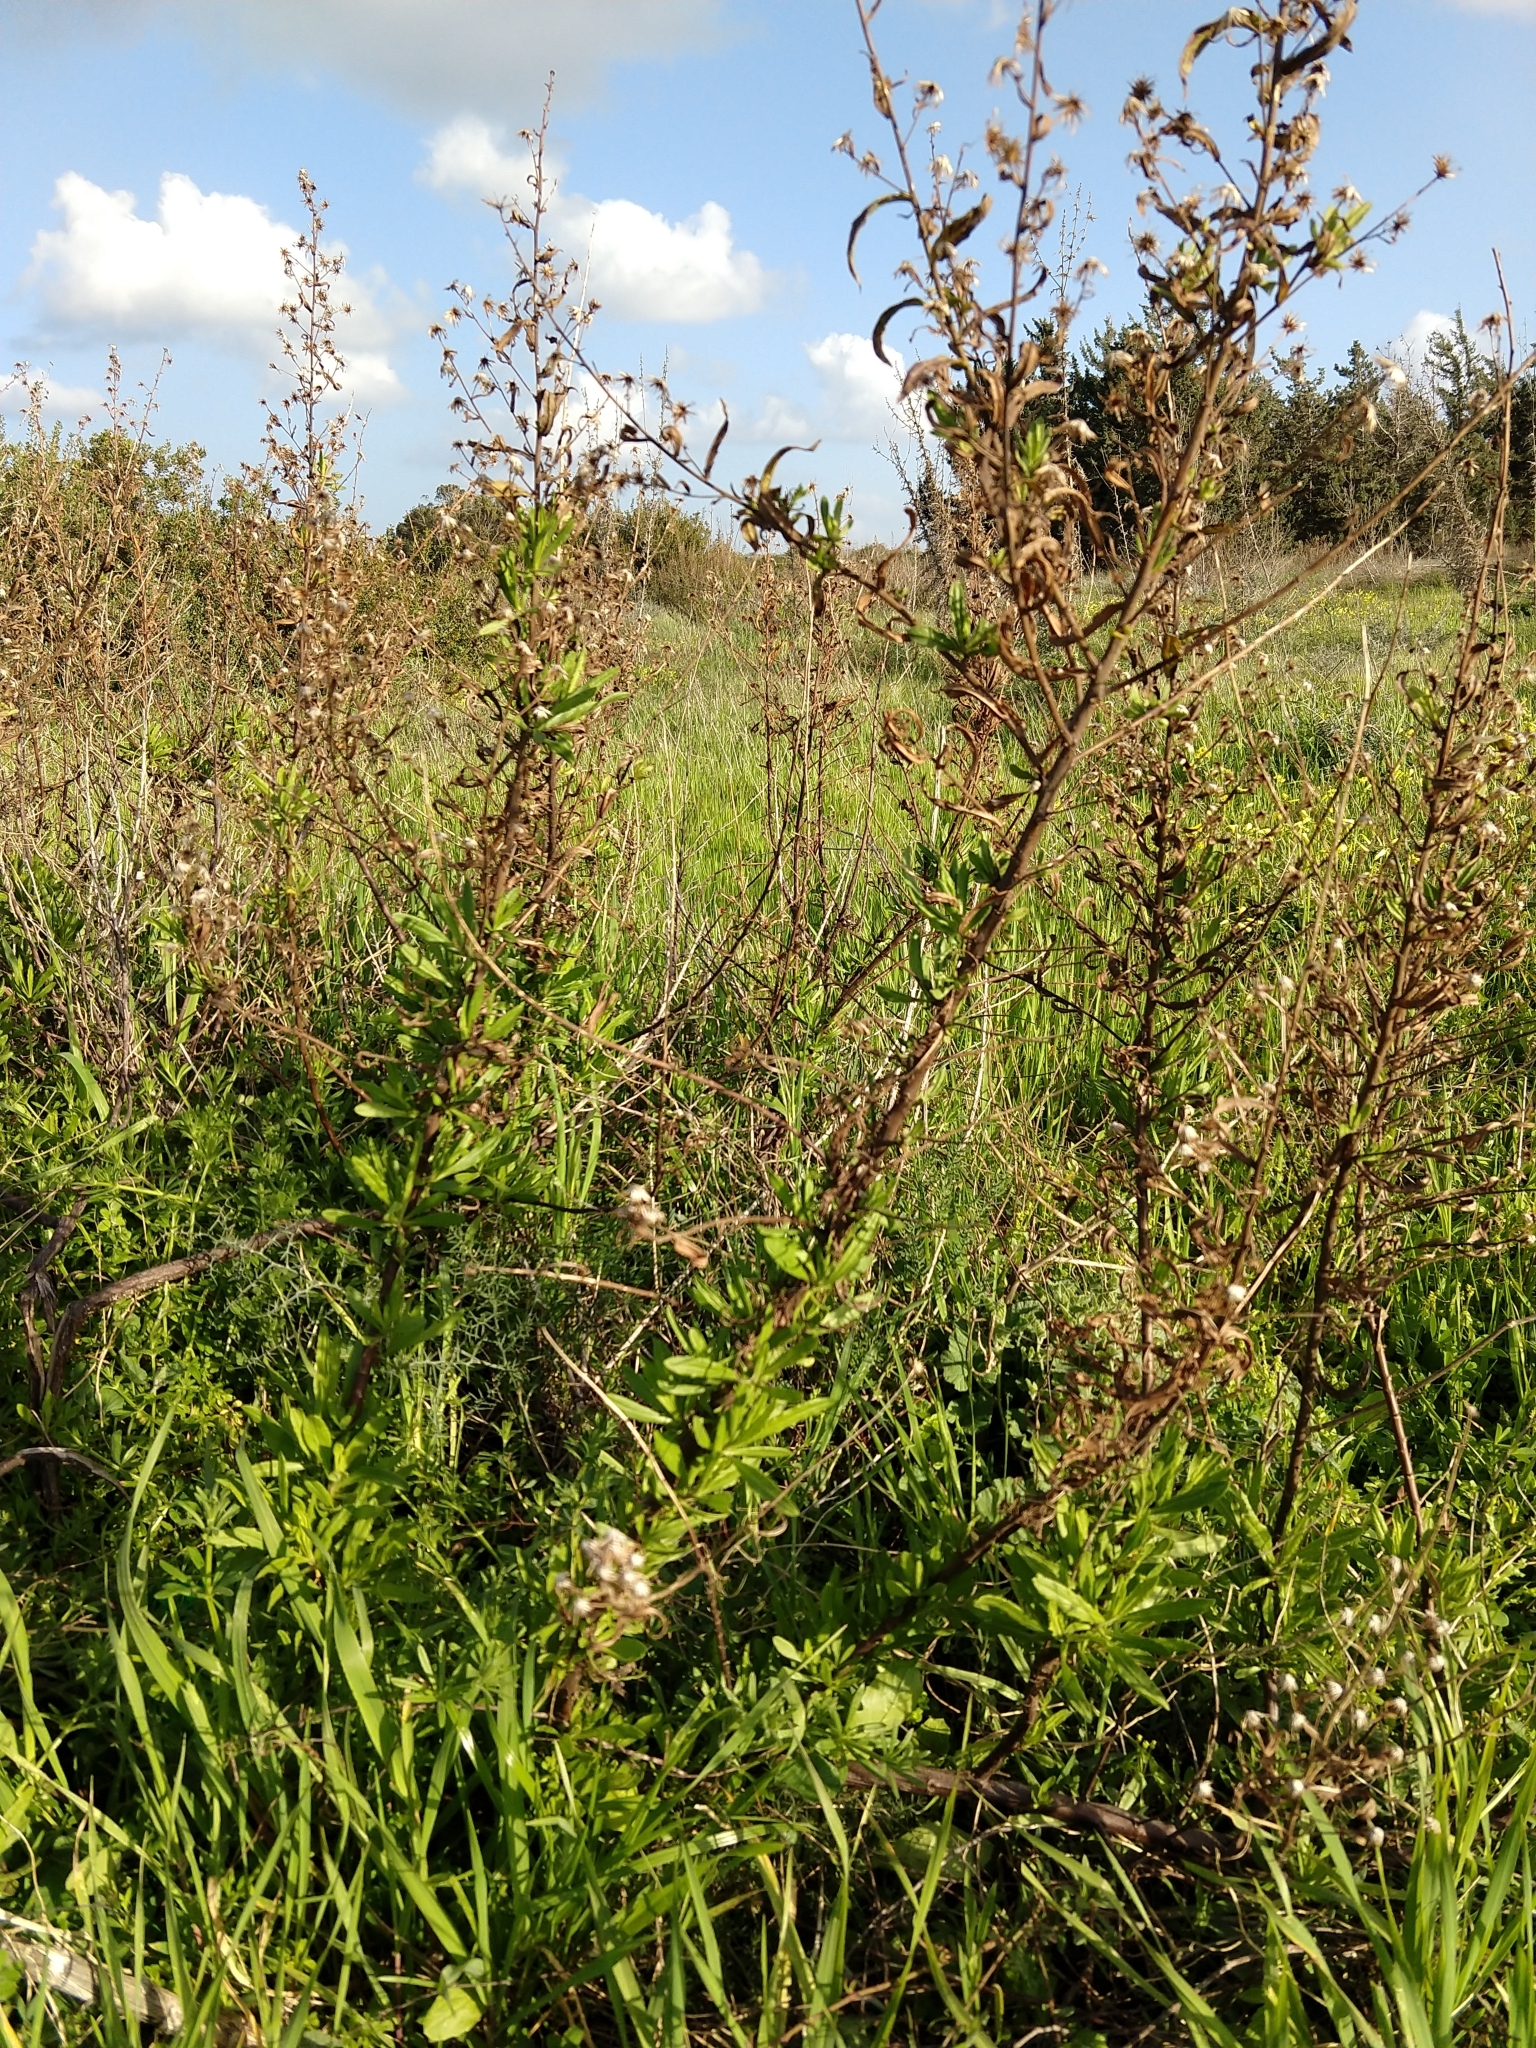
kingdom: Plantae
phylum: Tracheophyta
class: Magnoliopsida
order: Asterales
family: Asteraceae
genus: Dittrichia
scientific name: Dittrichia viscosa
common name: Woody fleabane
